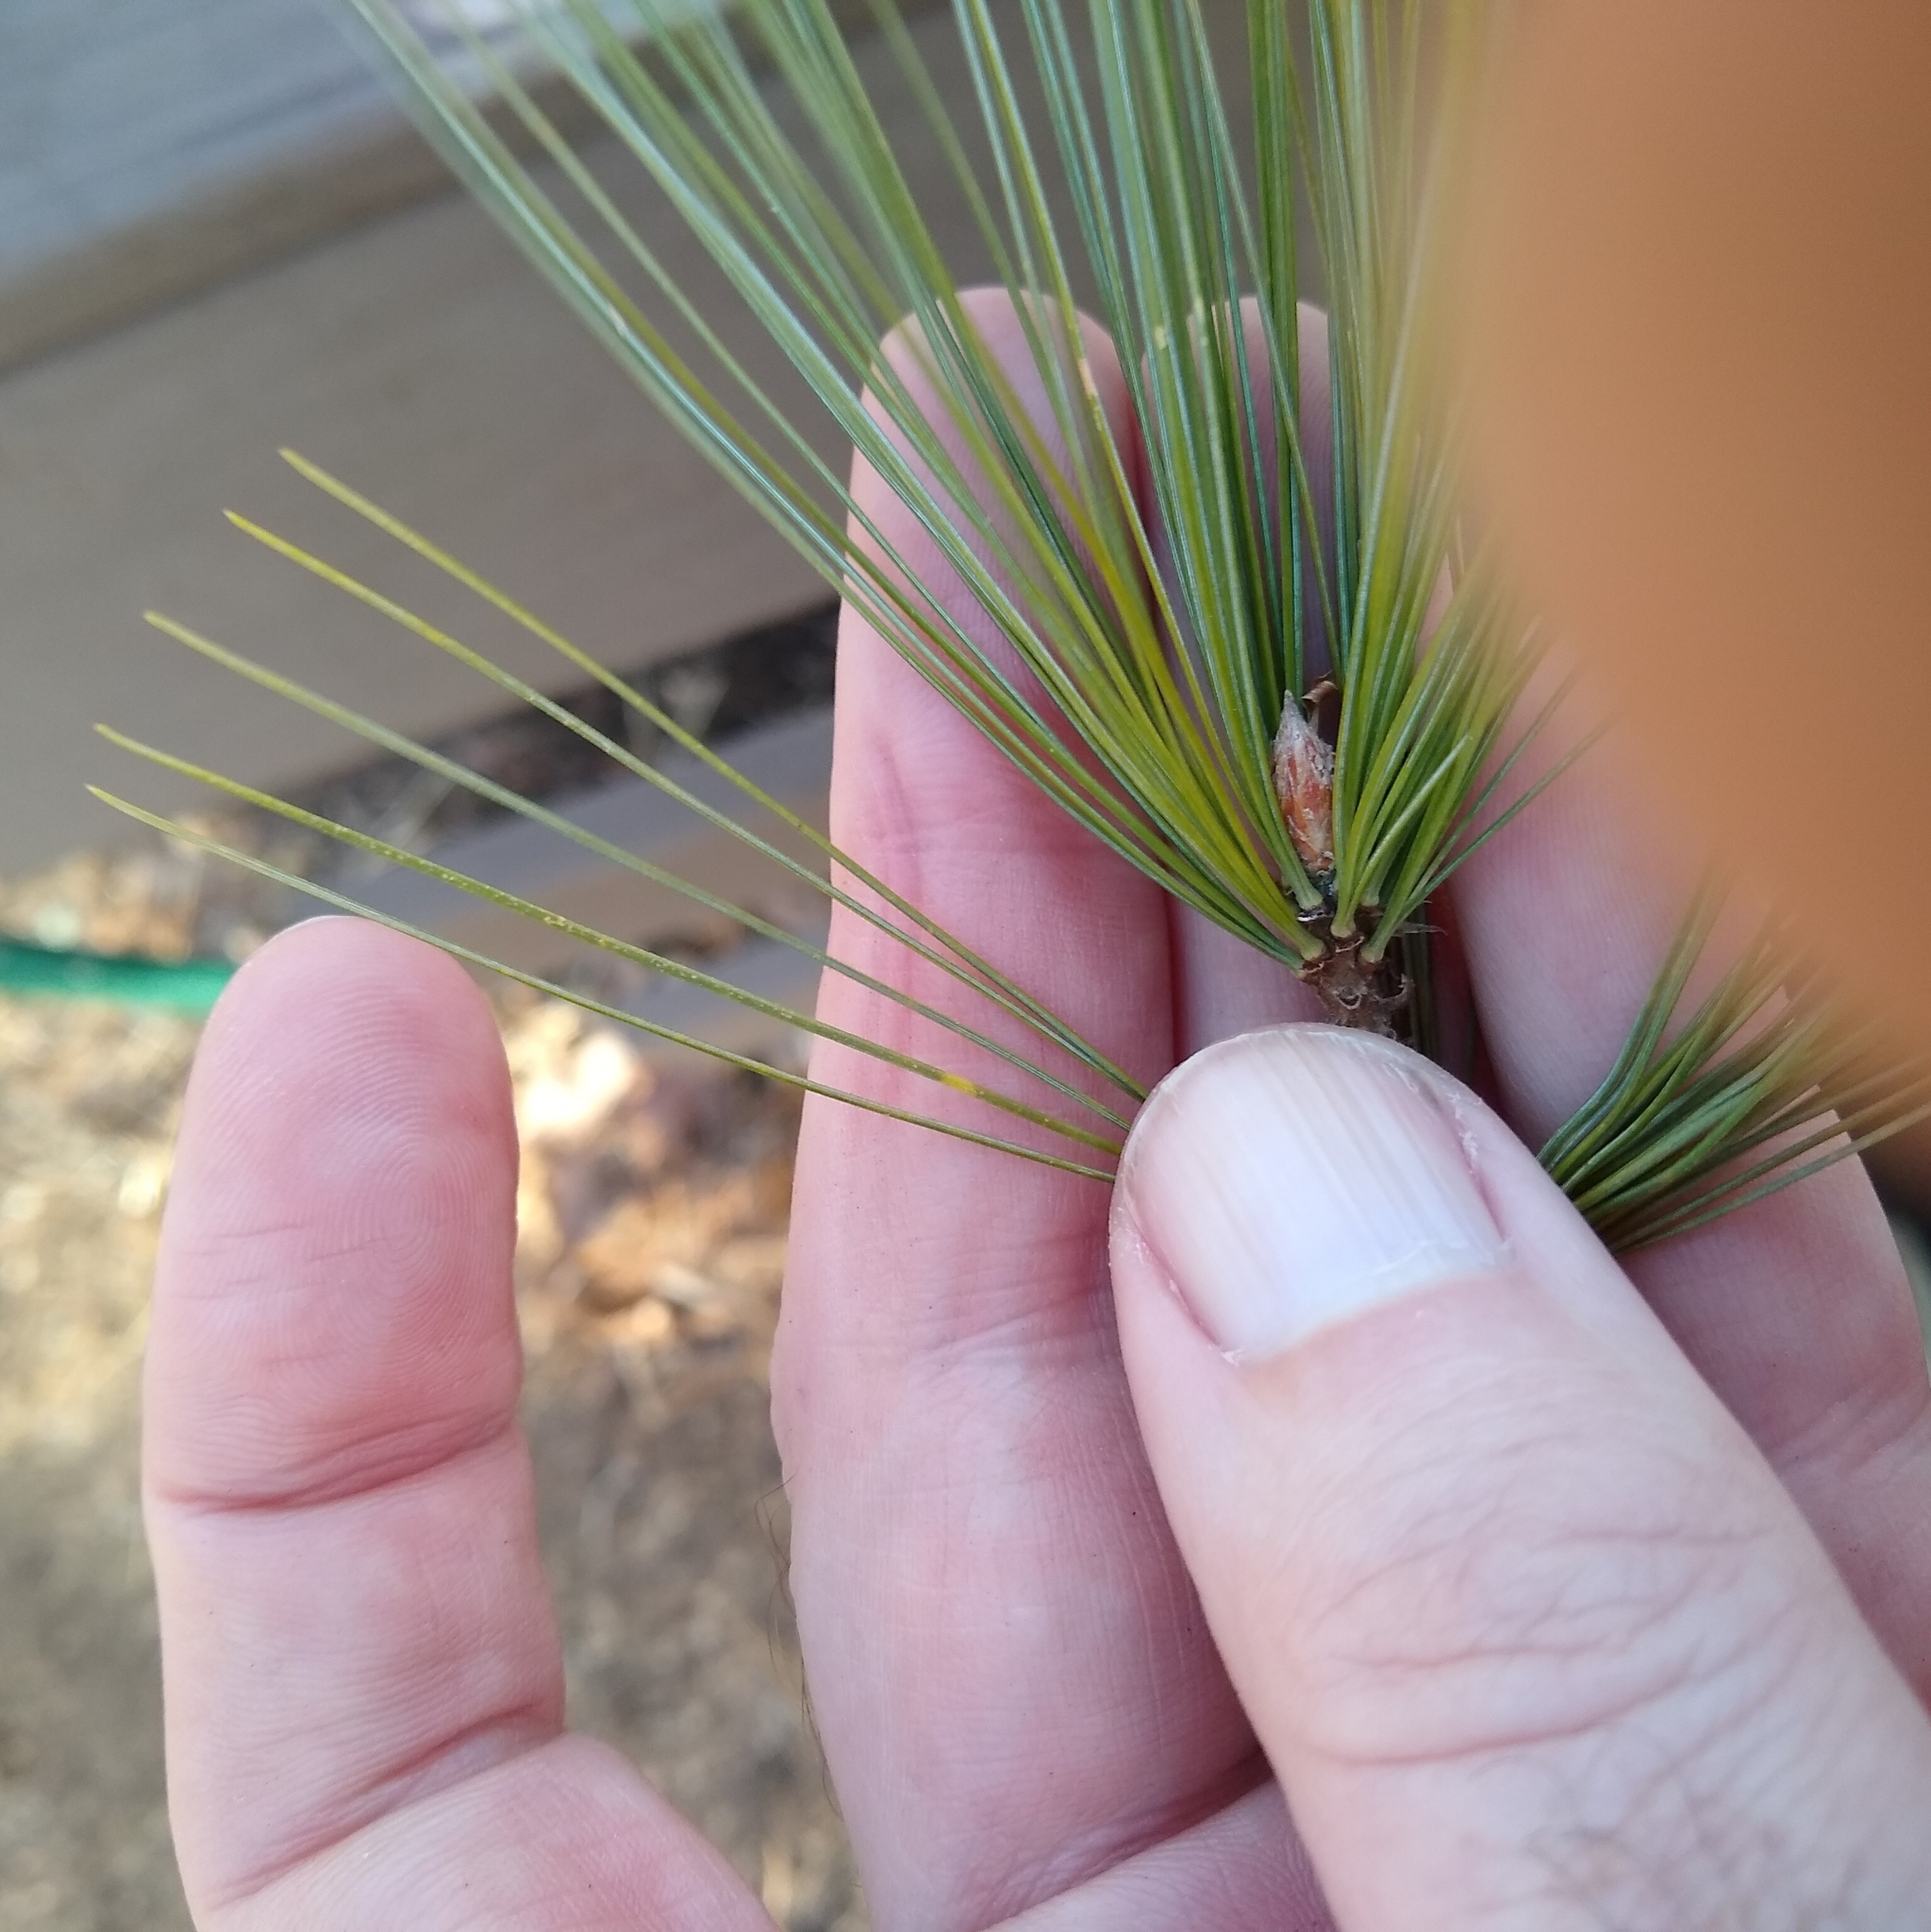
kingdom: Plantae
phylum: Tracheophyta
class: Pinopsida
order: Pinales
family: Pinaceae
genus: Pinus
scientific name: Pinus strobus
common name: Weymouth pine
